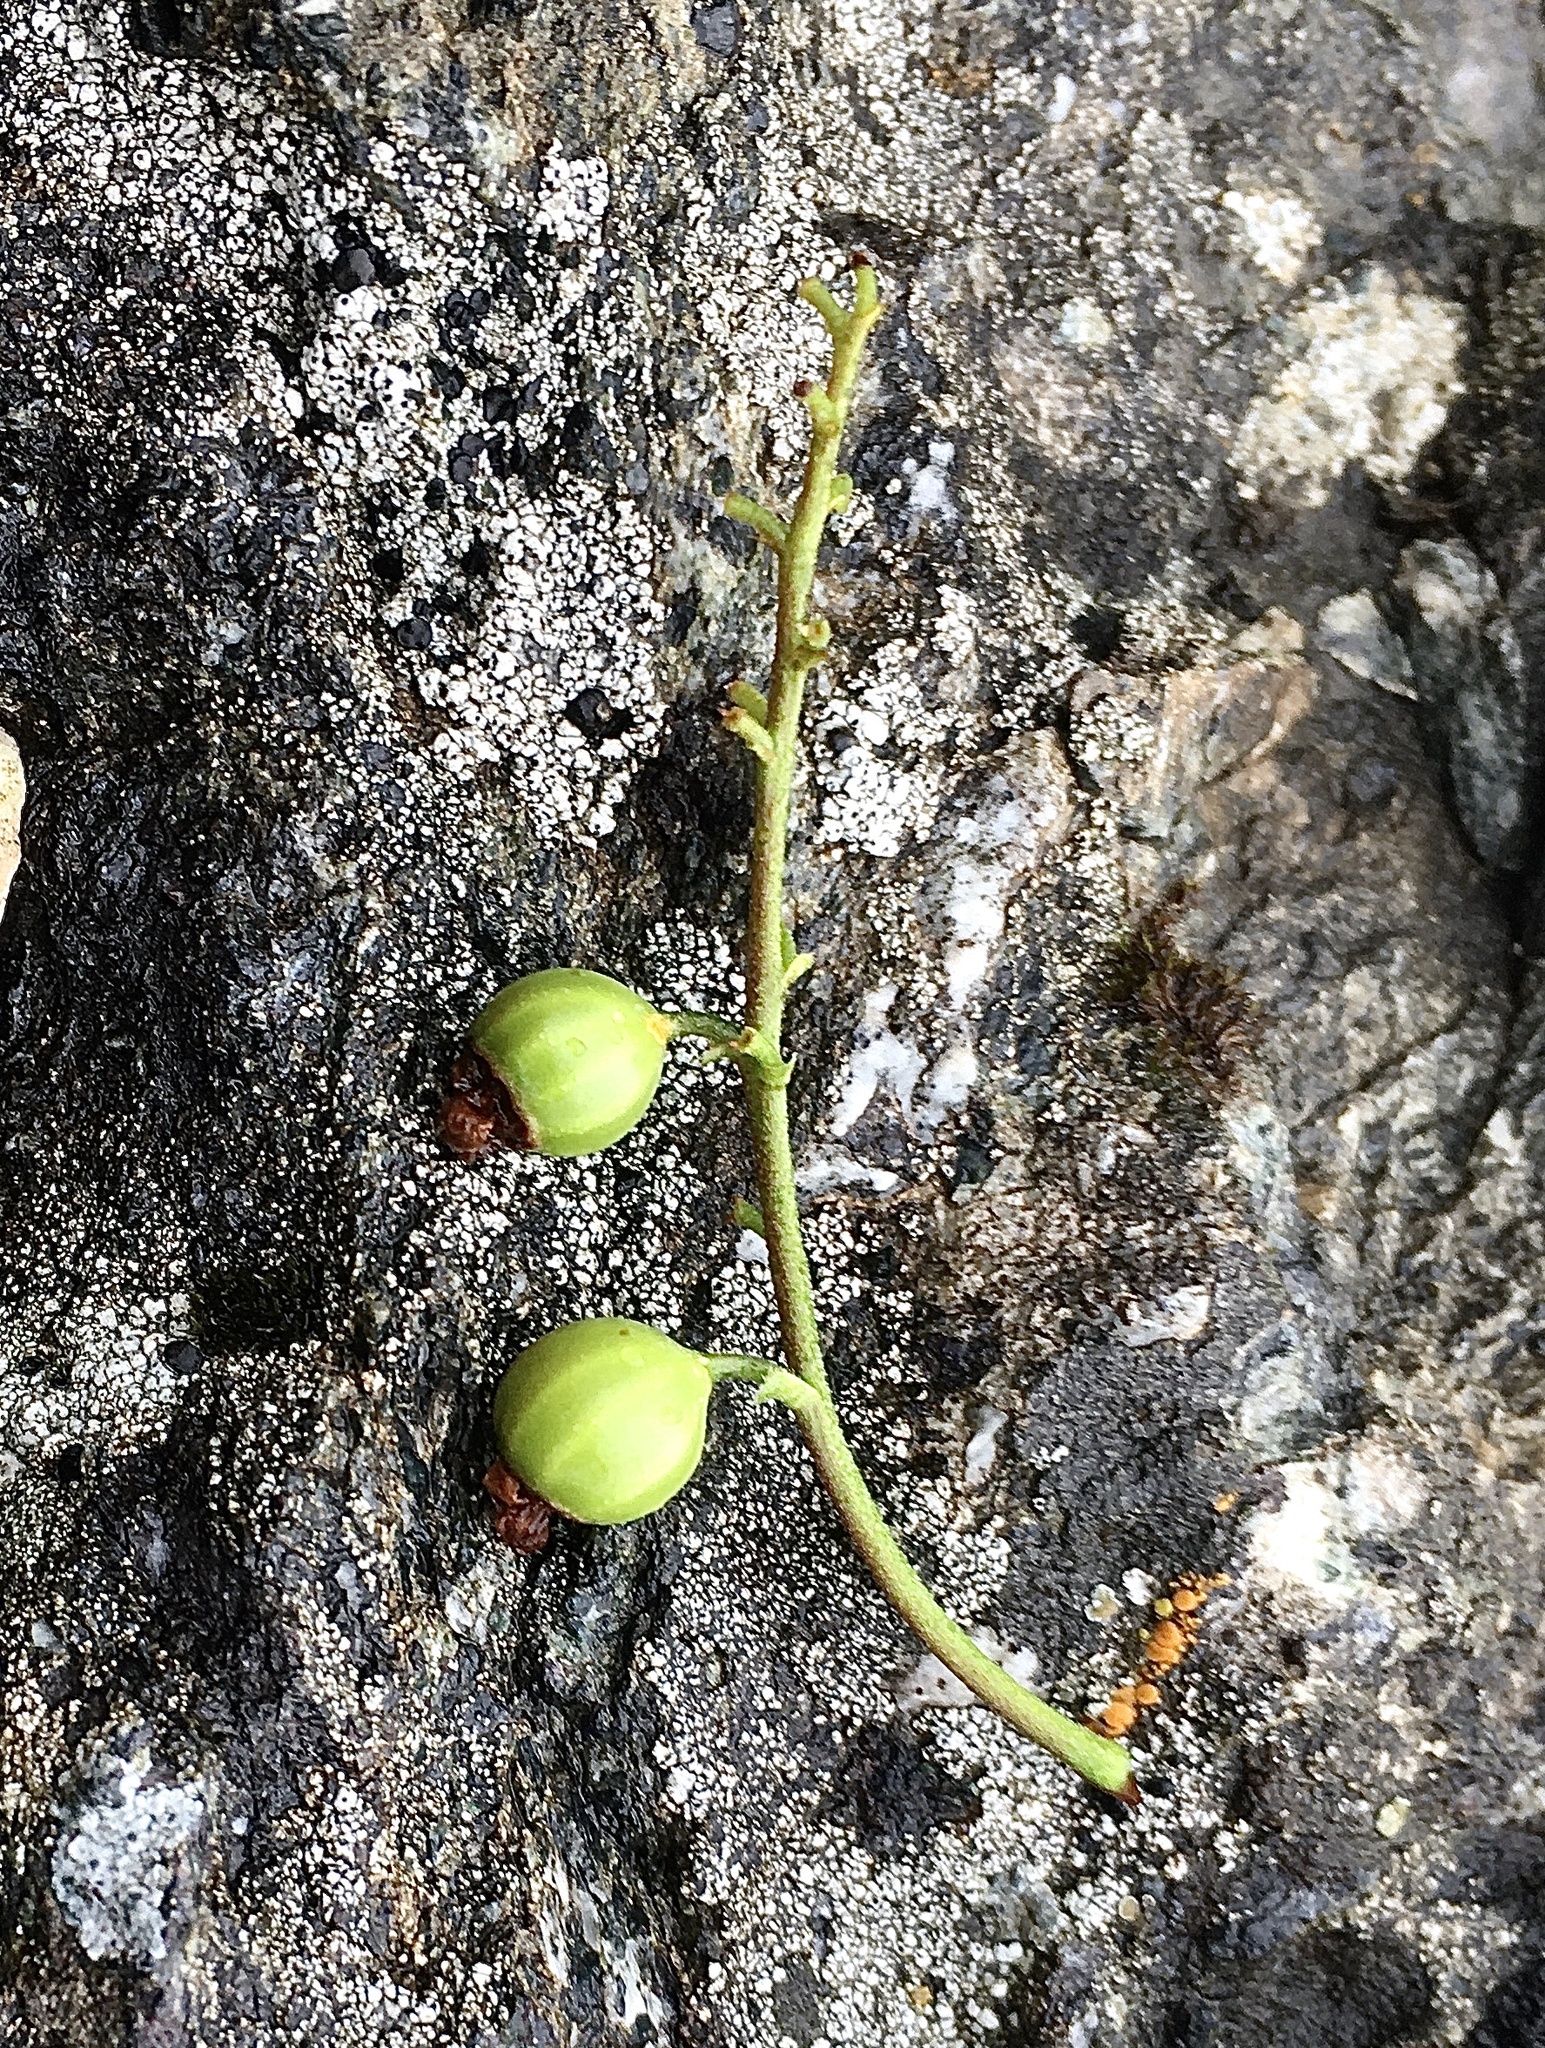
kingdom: Plantae
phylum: Tracheophyta
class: Magnoliopsida
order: Saxifragales
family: Grossulariaceae
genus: Ribes
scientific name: Ribes rubrum
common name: Red currant
